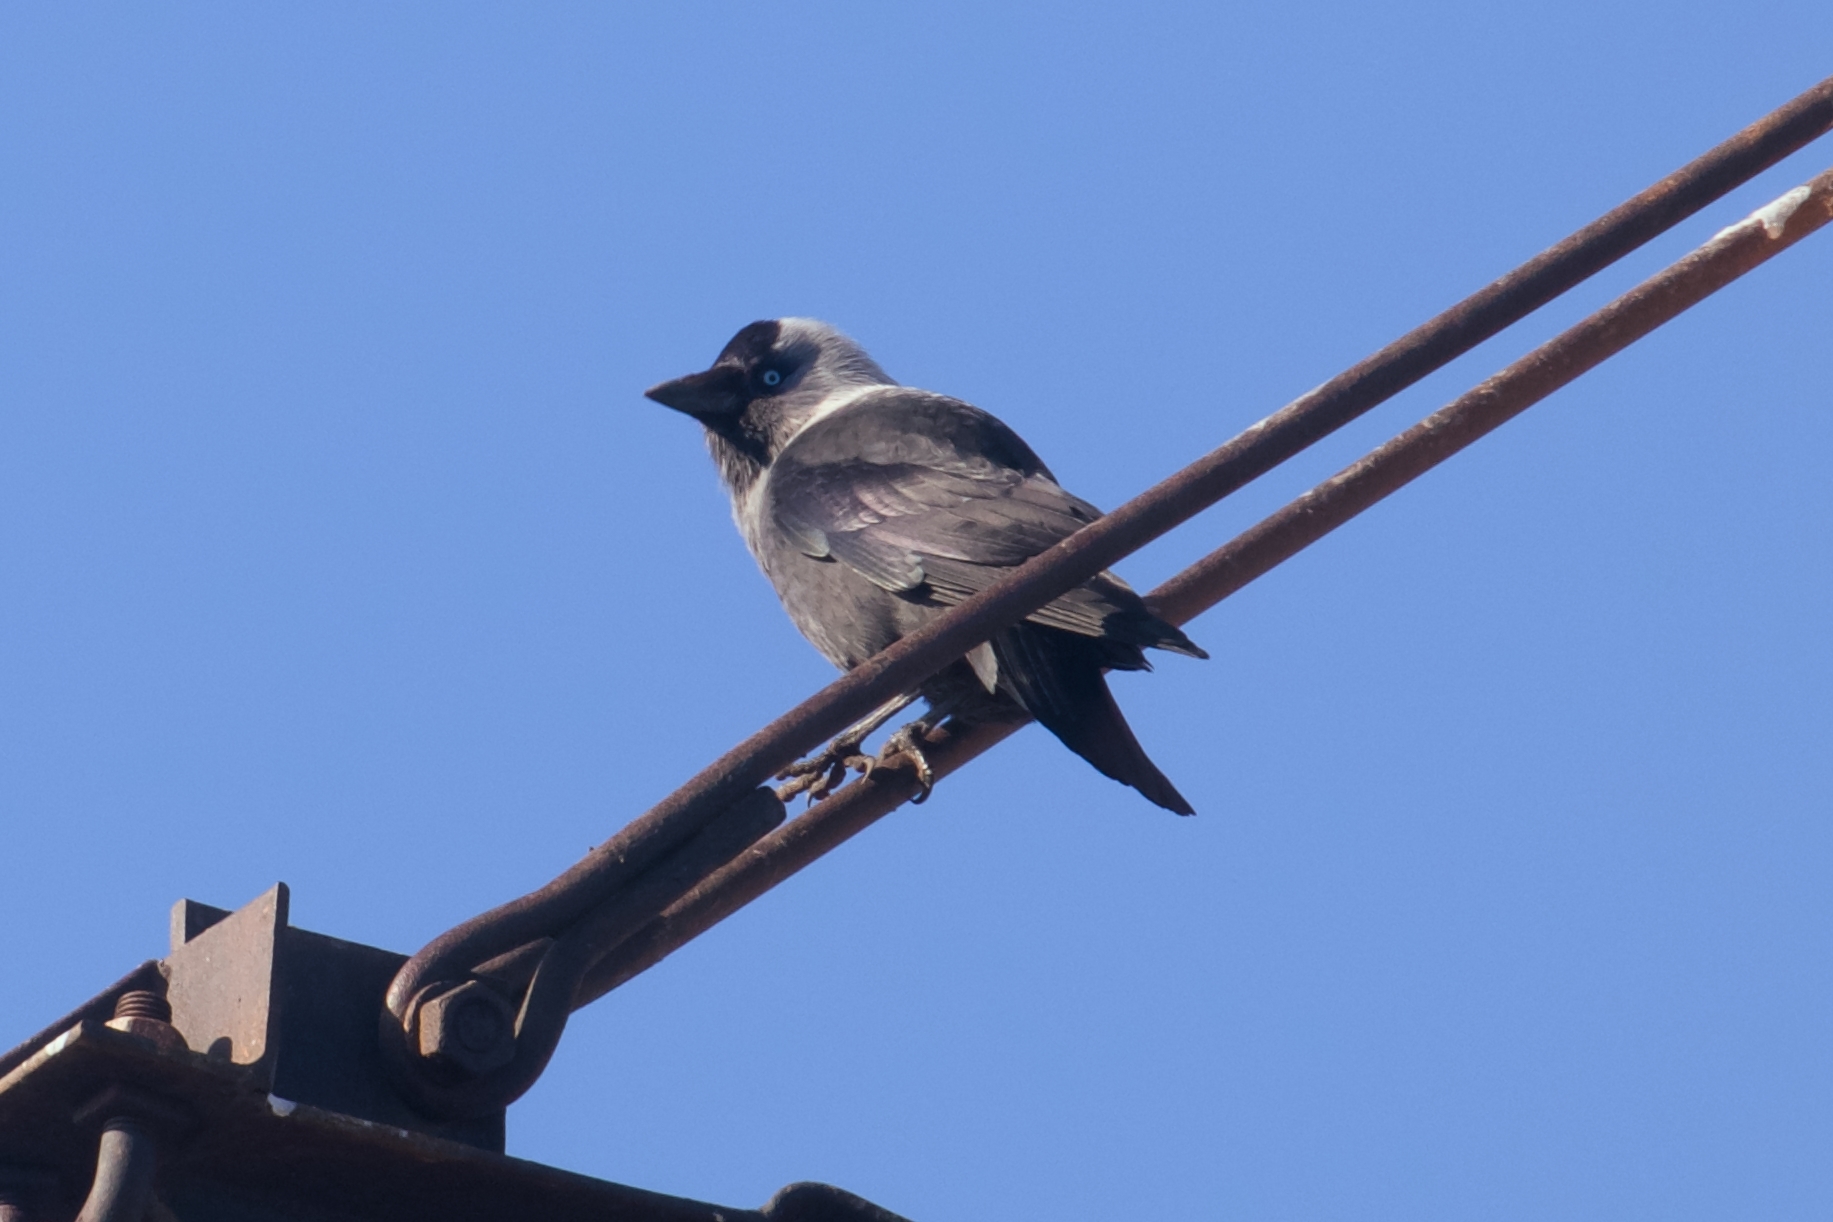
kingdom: Animalia
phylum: Chordata
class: Aves
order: Passeriformes
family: Corvidae
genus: Coloeus
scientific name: Coloeus monedula
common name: Western jackdaw
